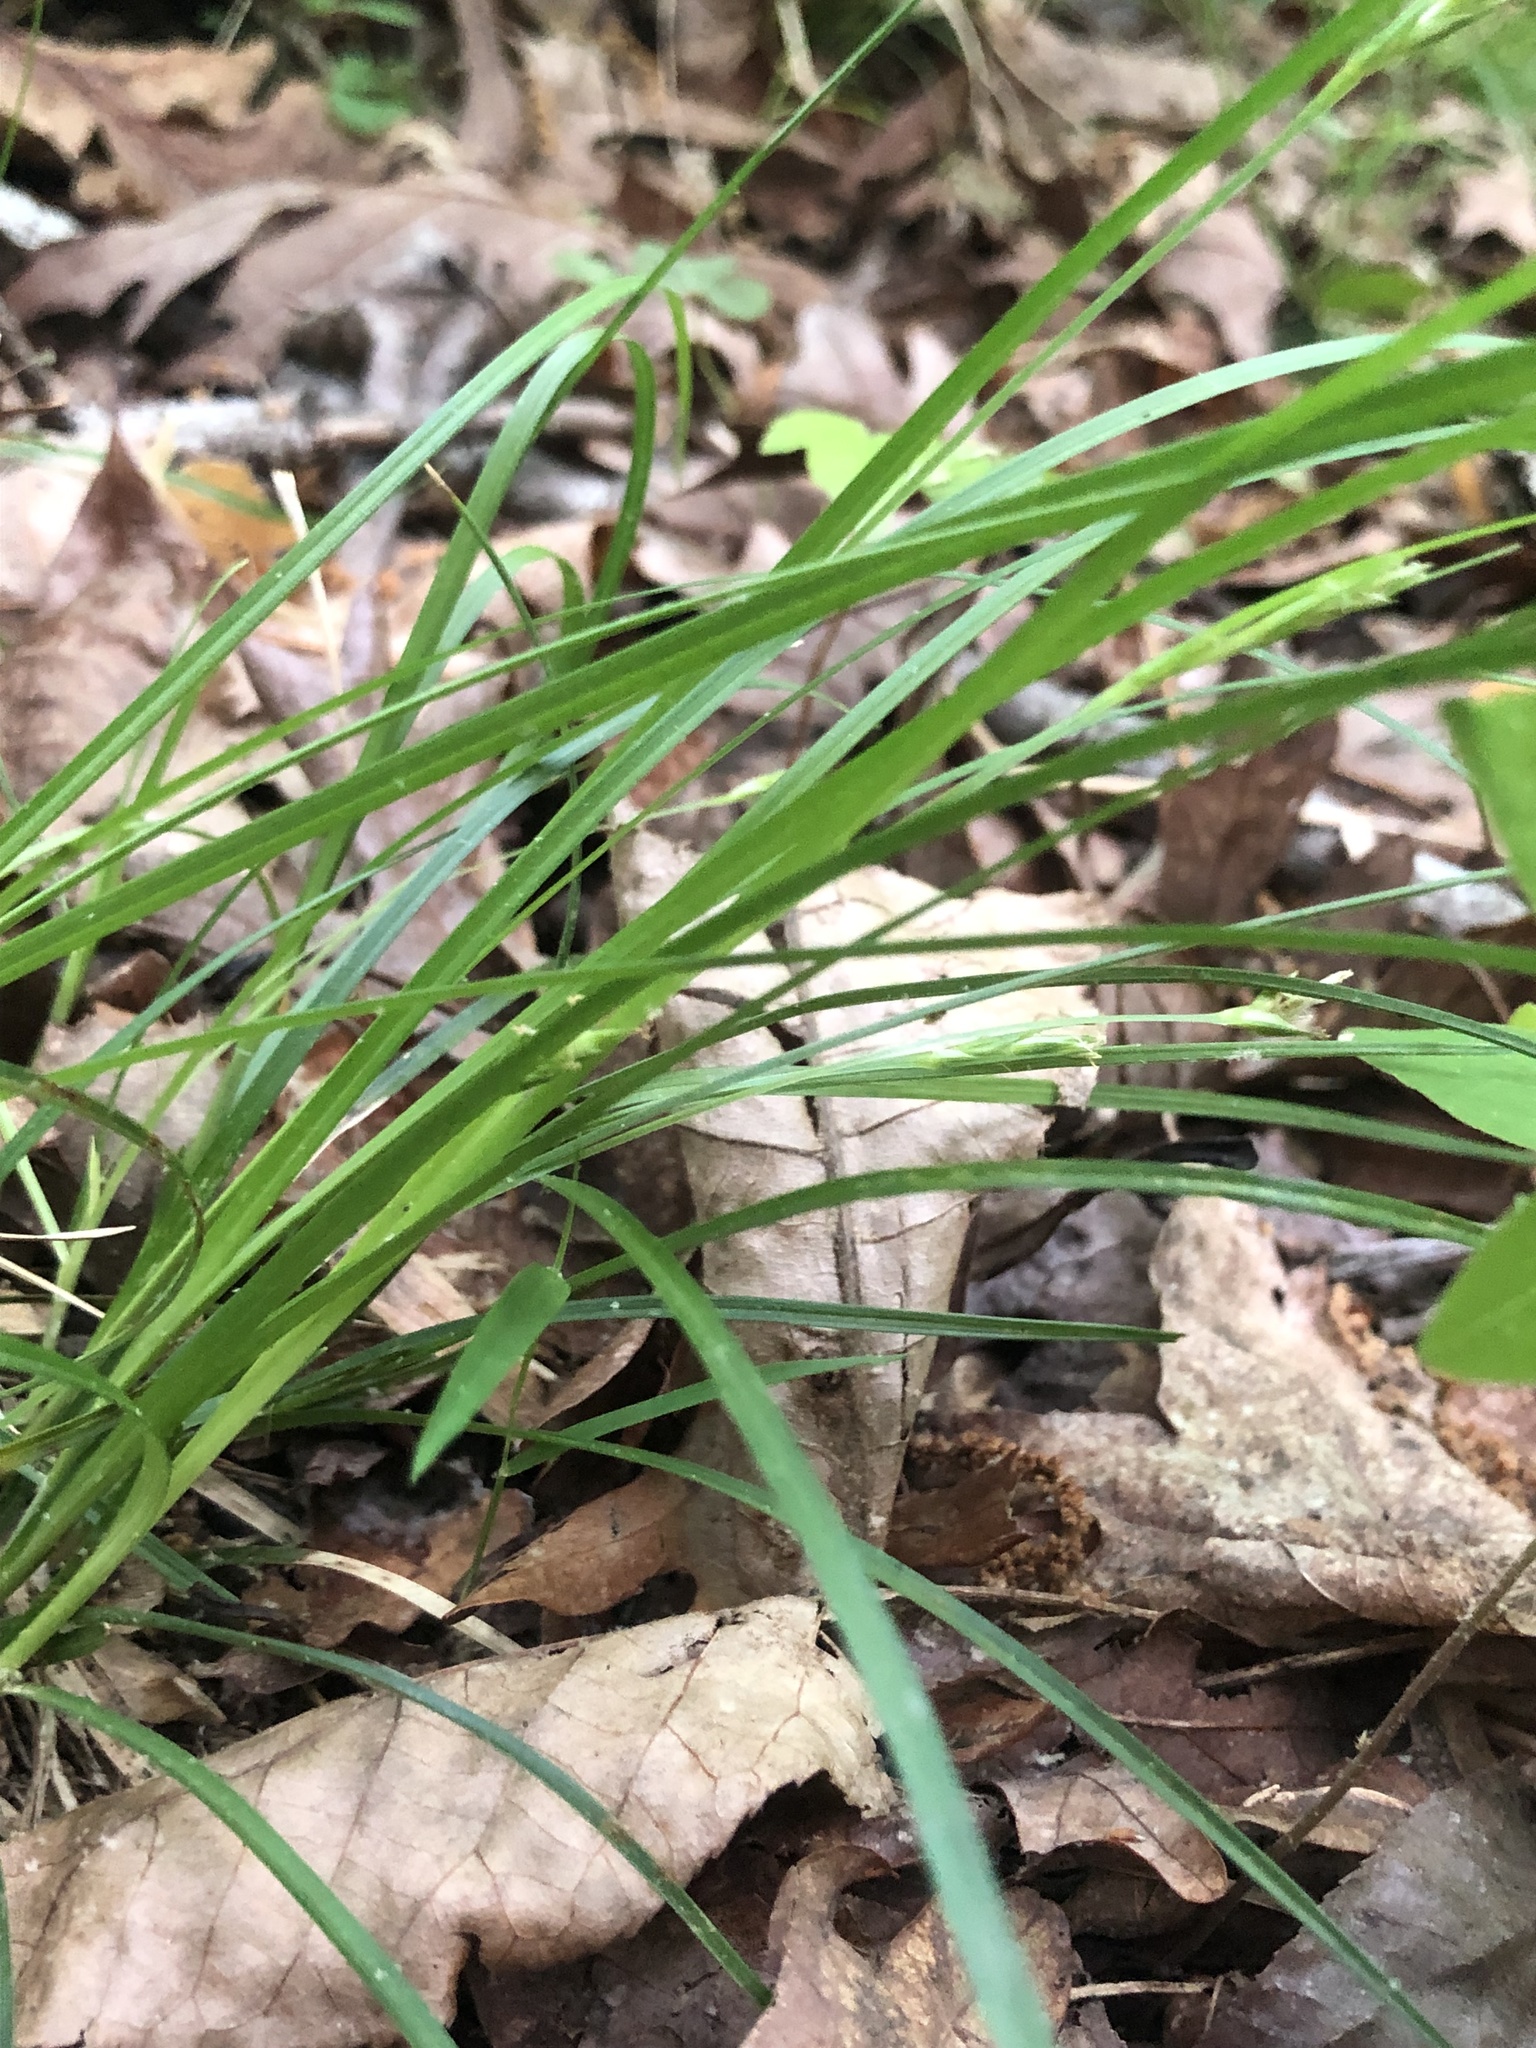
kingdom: Plantae
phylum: Tracheophyta
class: Liliopsida
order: Poales
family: Cyperaceae
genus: Carex
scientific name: Carex willdenowii
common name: Willdenow's sedge
